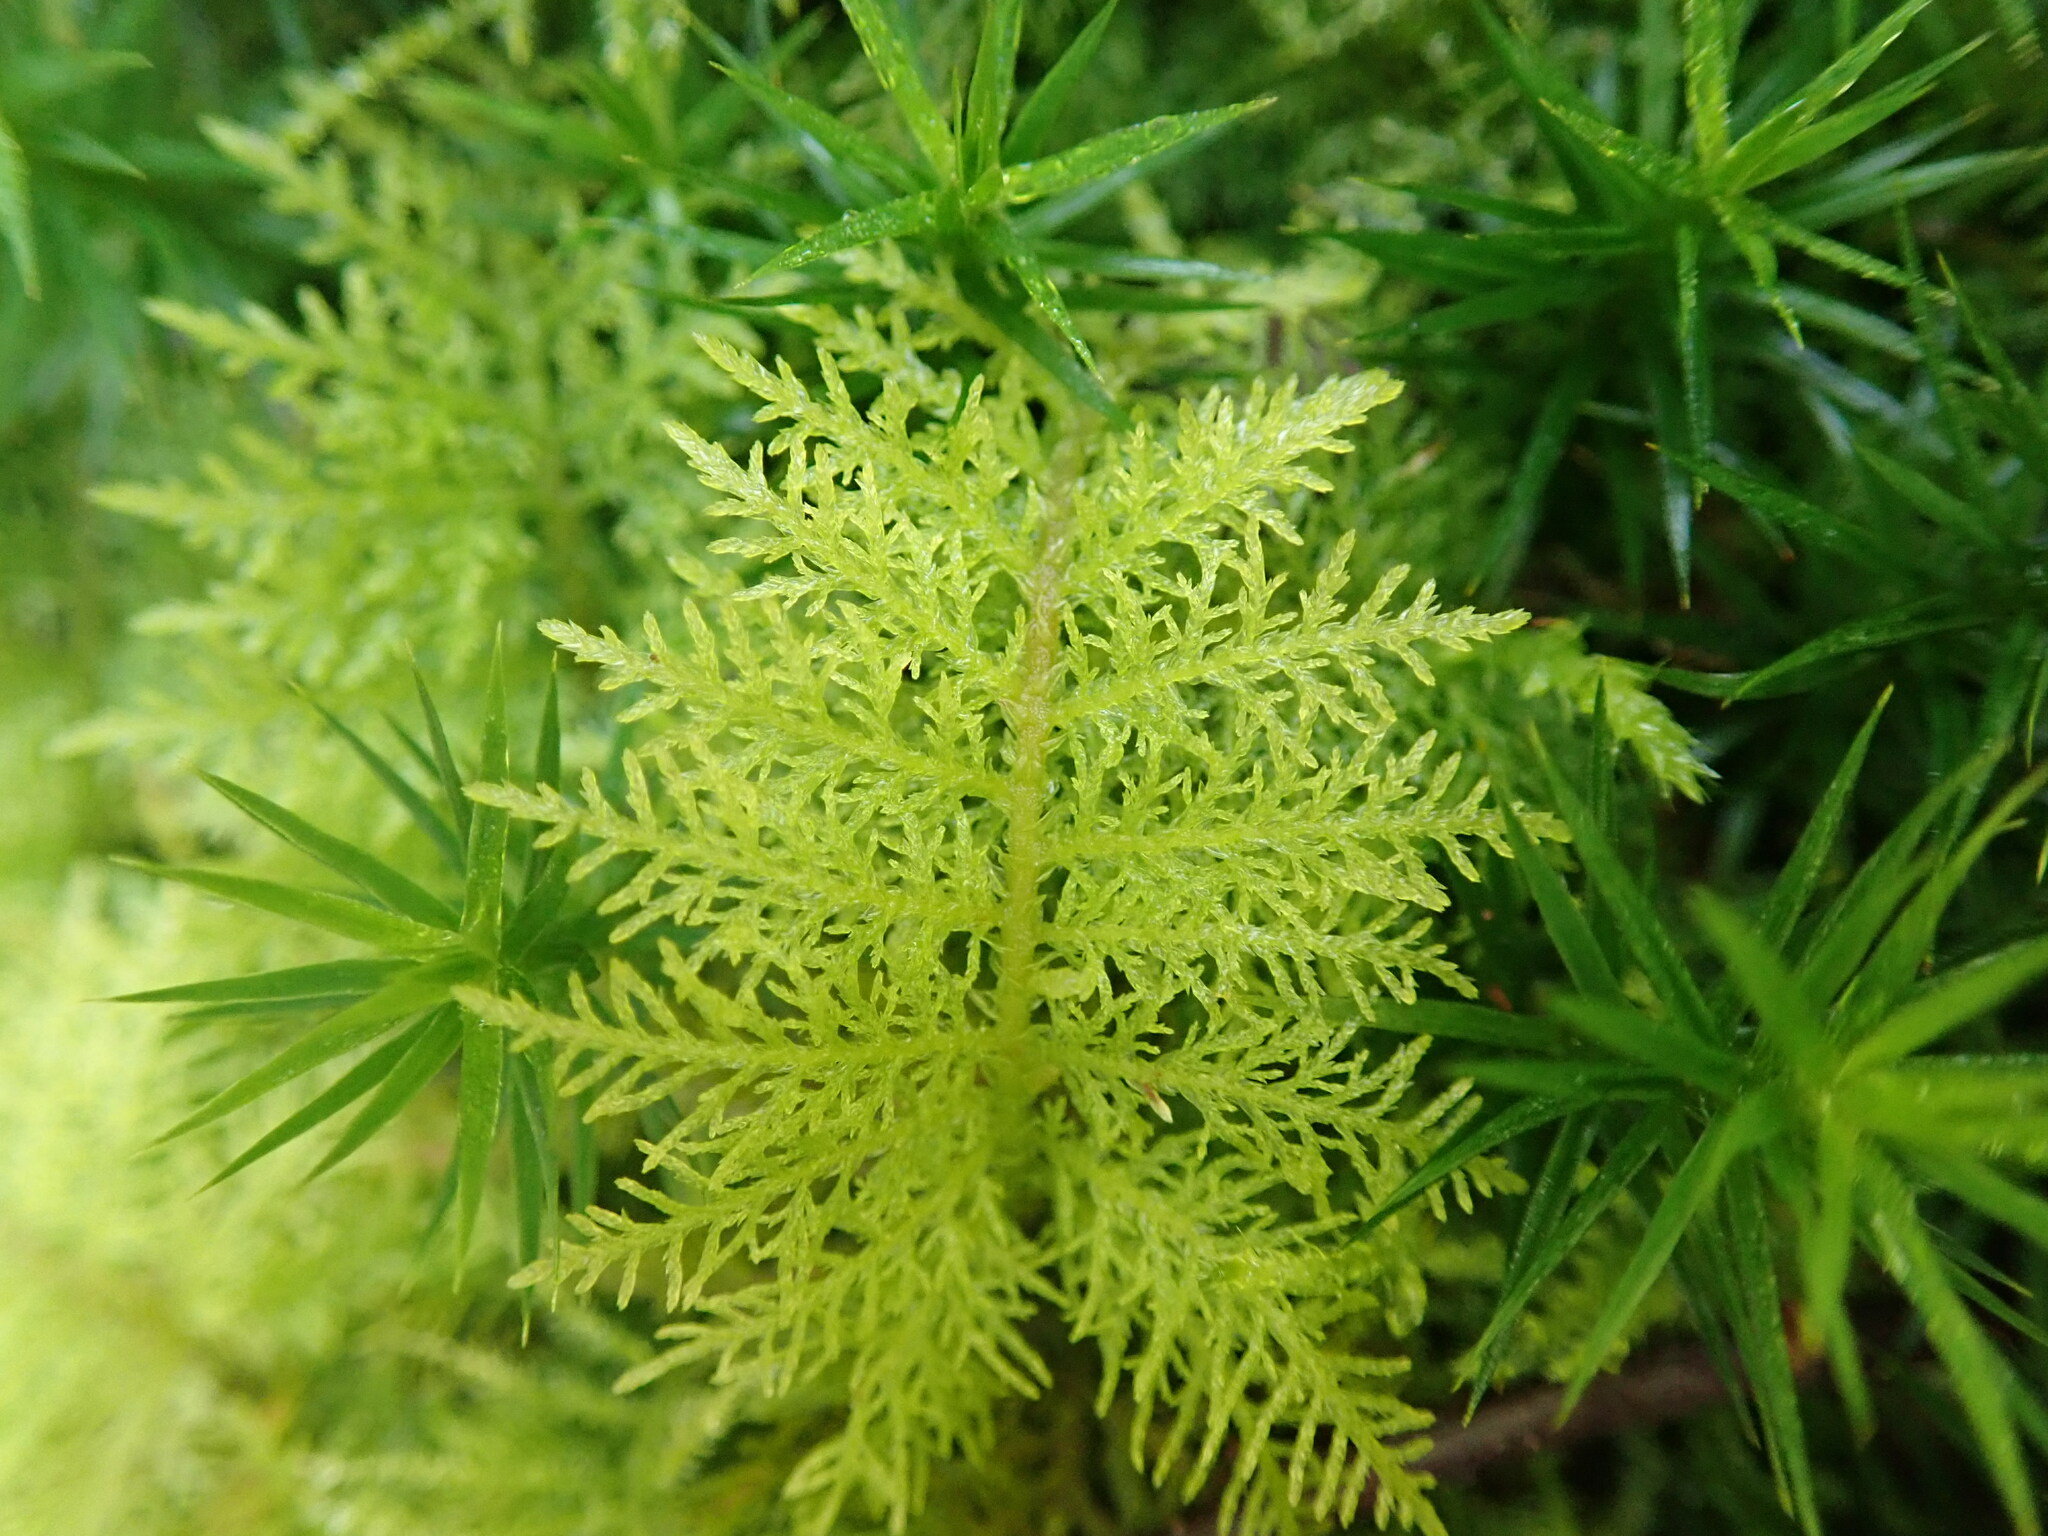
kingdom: Plantae
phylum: Bryophyta
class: Bryopsida
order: Hypnales
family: Thuidiaceae
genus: Thuidium
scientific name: Thuidium tamariscinum
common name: Common tamarisk-moss
